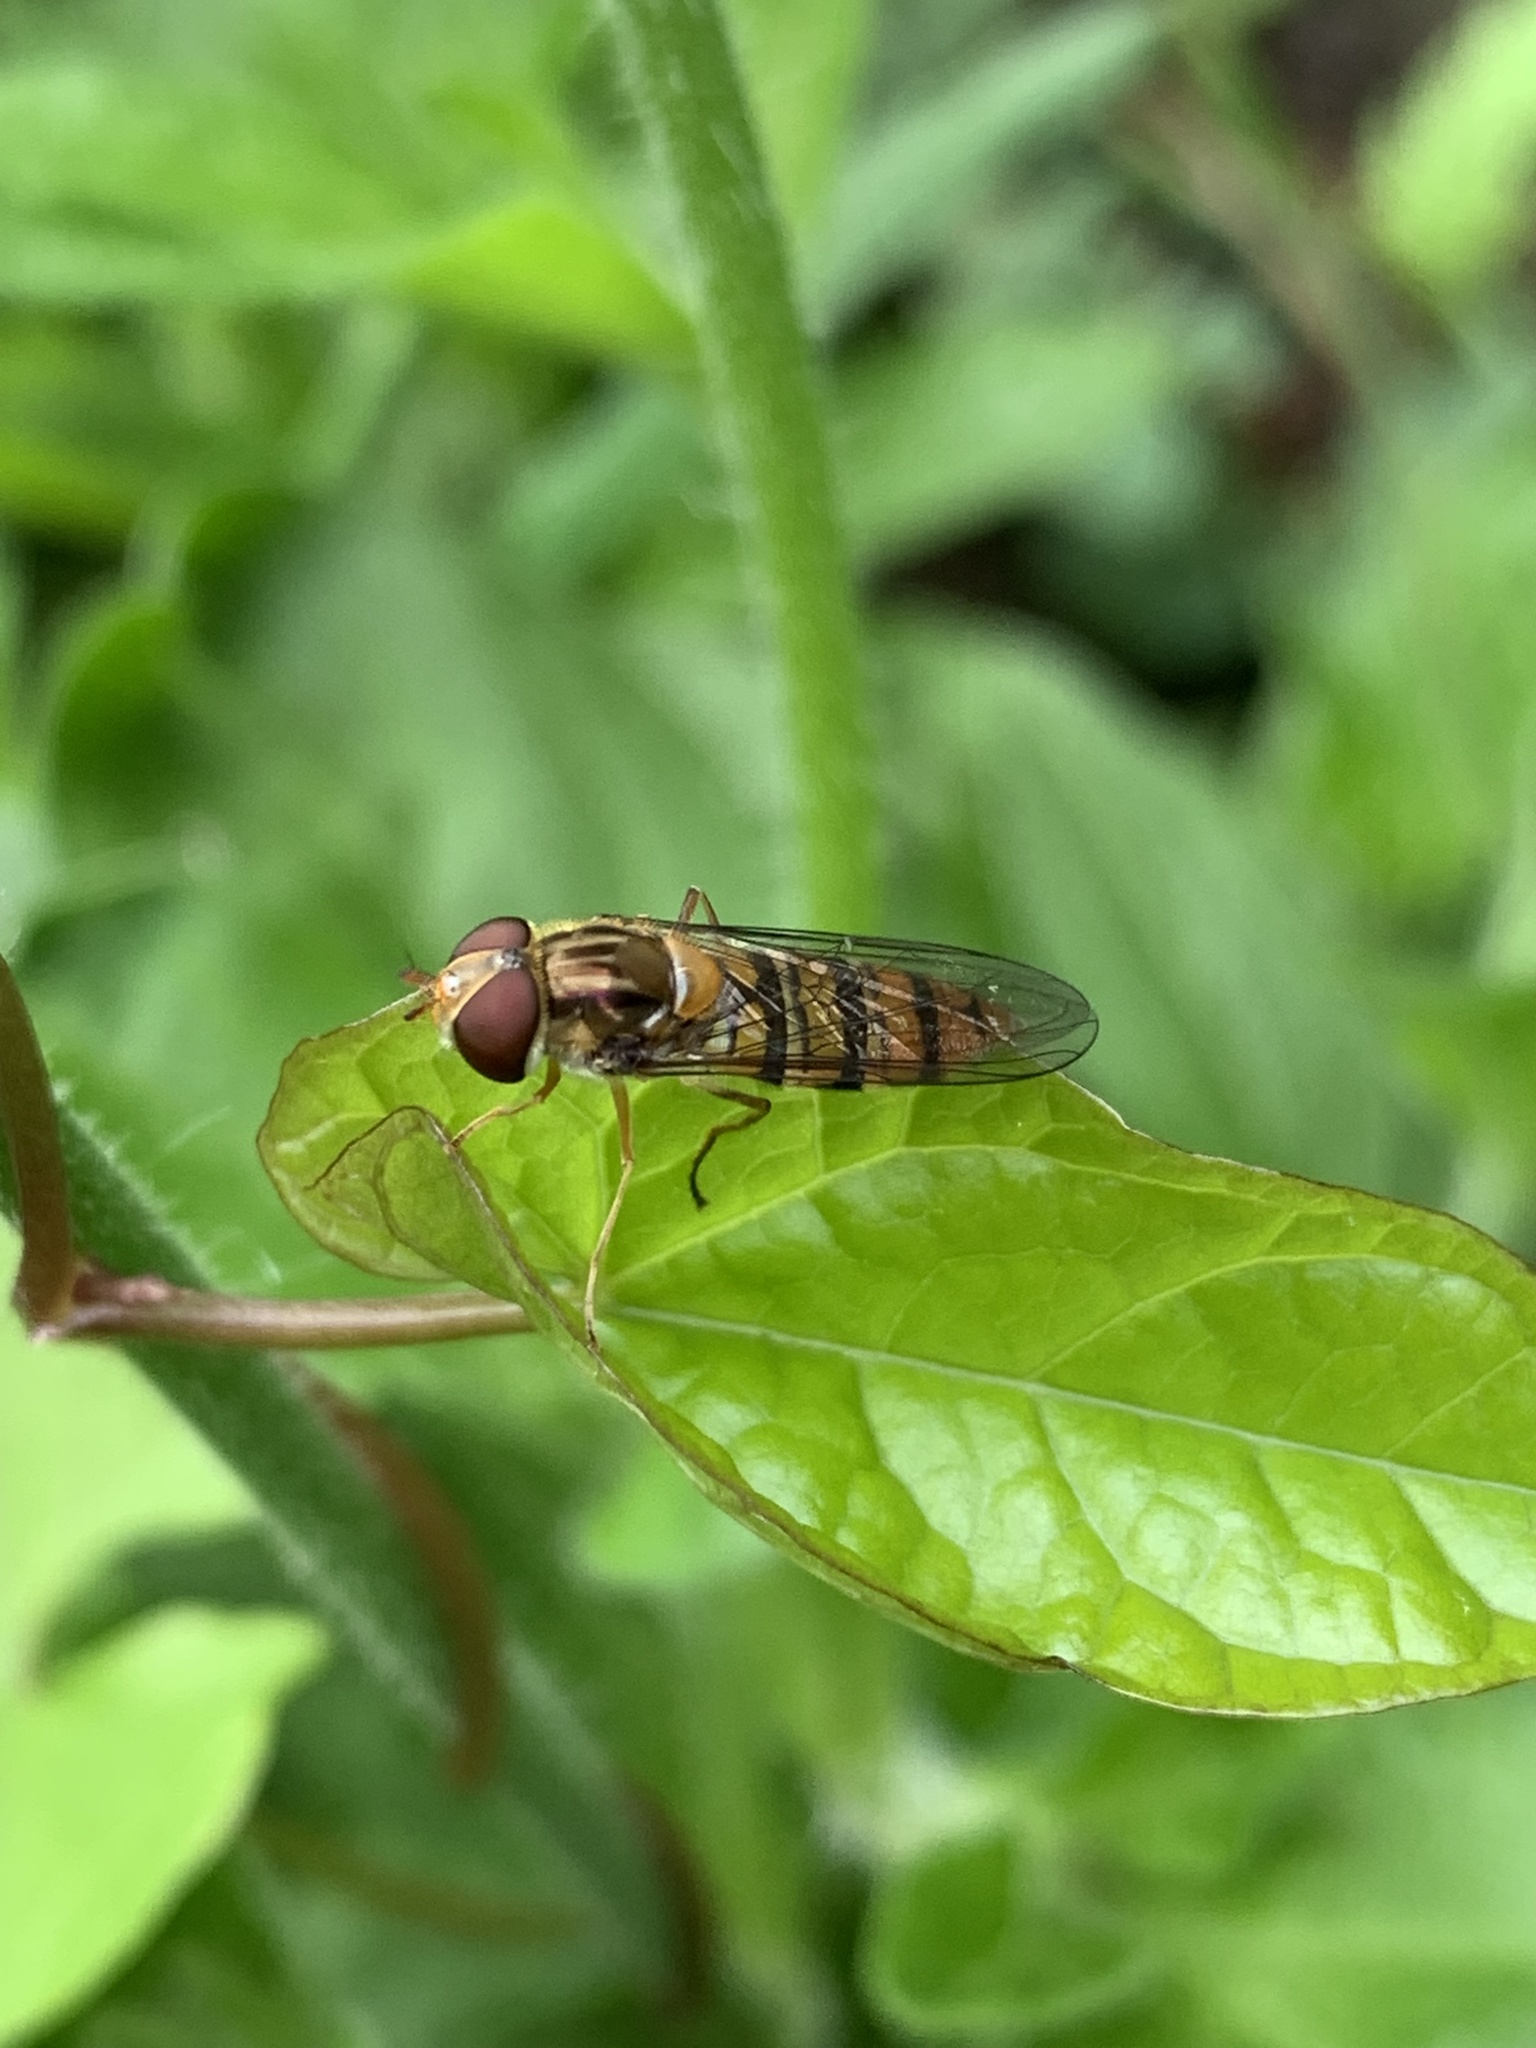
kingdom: Animalia
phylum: Arthropoda
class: Insecta
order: Diptera
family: Syrphidae
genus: Episyrphus
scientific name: Episyrphus balteatus
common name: Marmalade hoverfly
